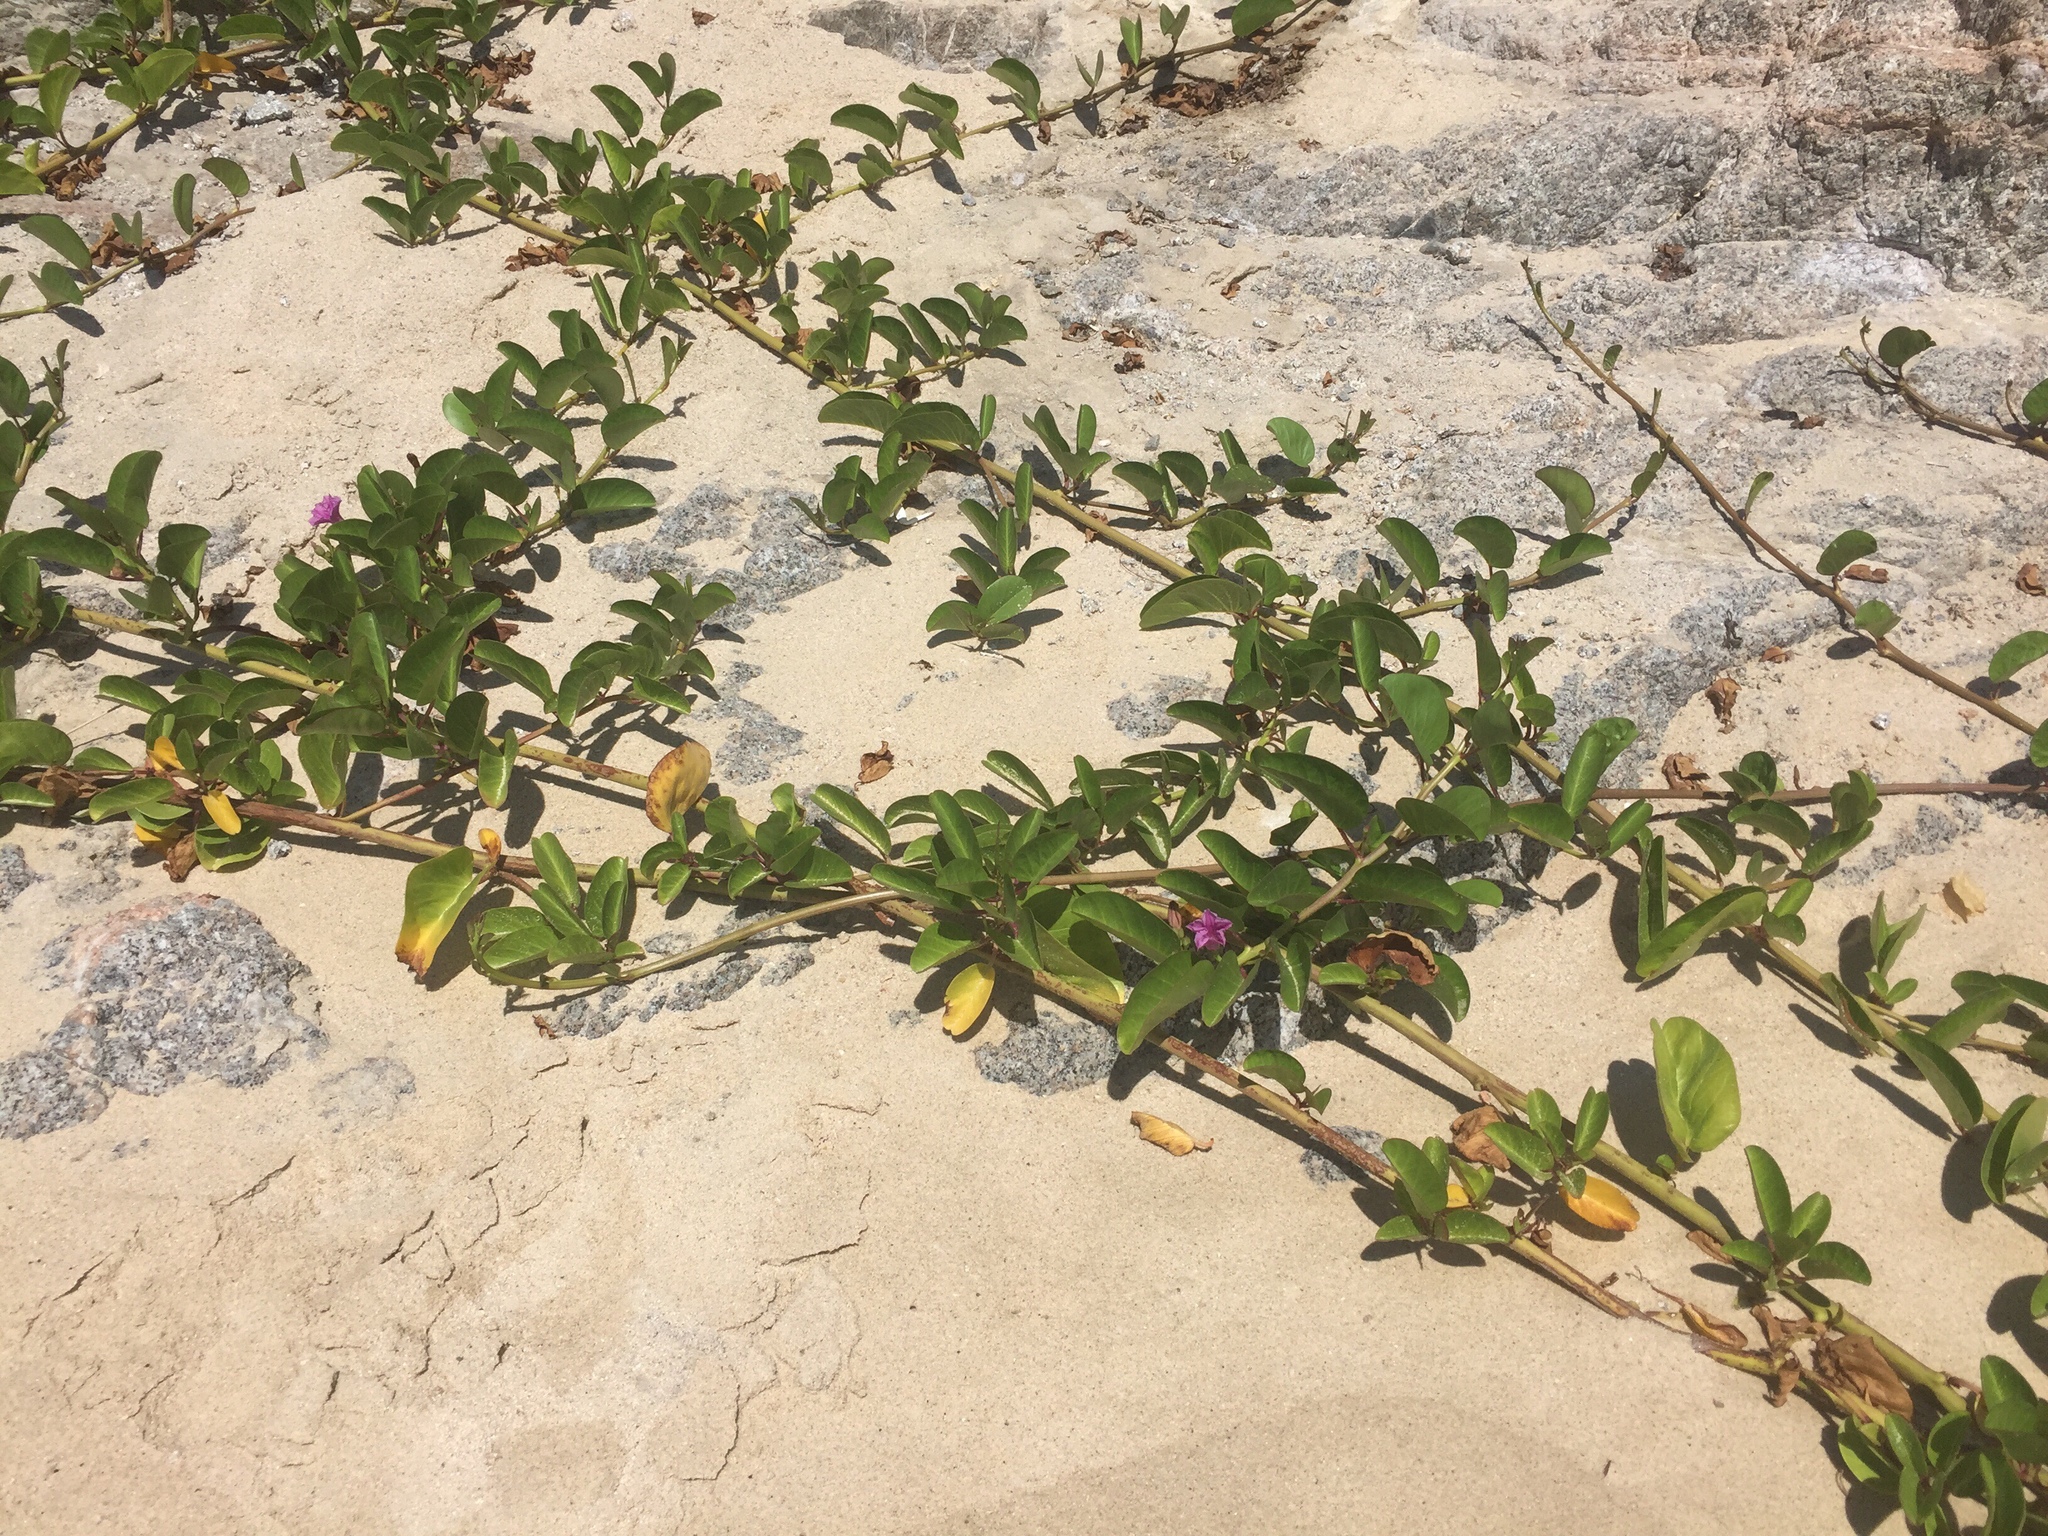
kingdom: Plantae
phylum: Tracheophyta
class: Magnoliopsida
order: Solanales
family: Convolvulaceae
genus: Ipomoea
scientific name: Ipomoea pes-caprae
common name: Beach morning glory
